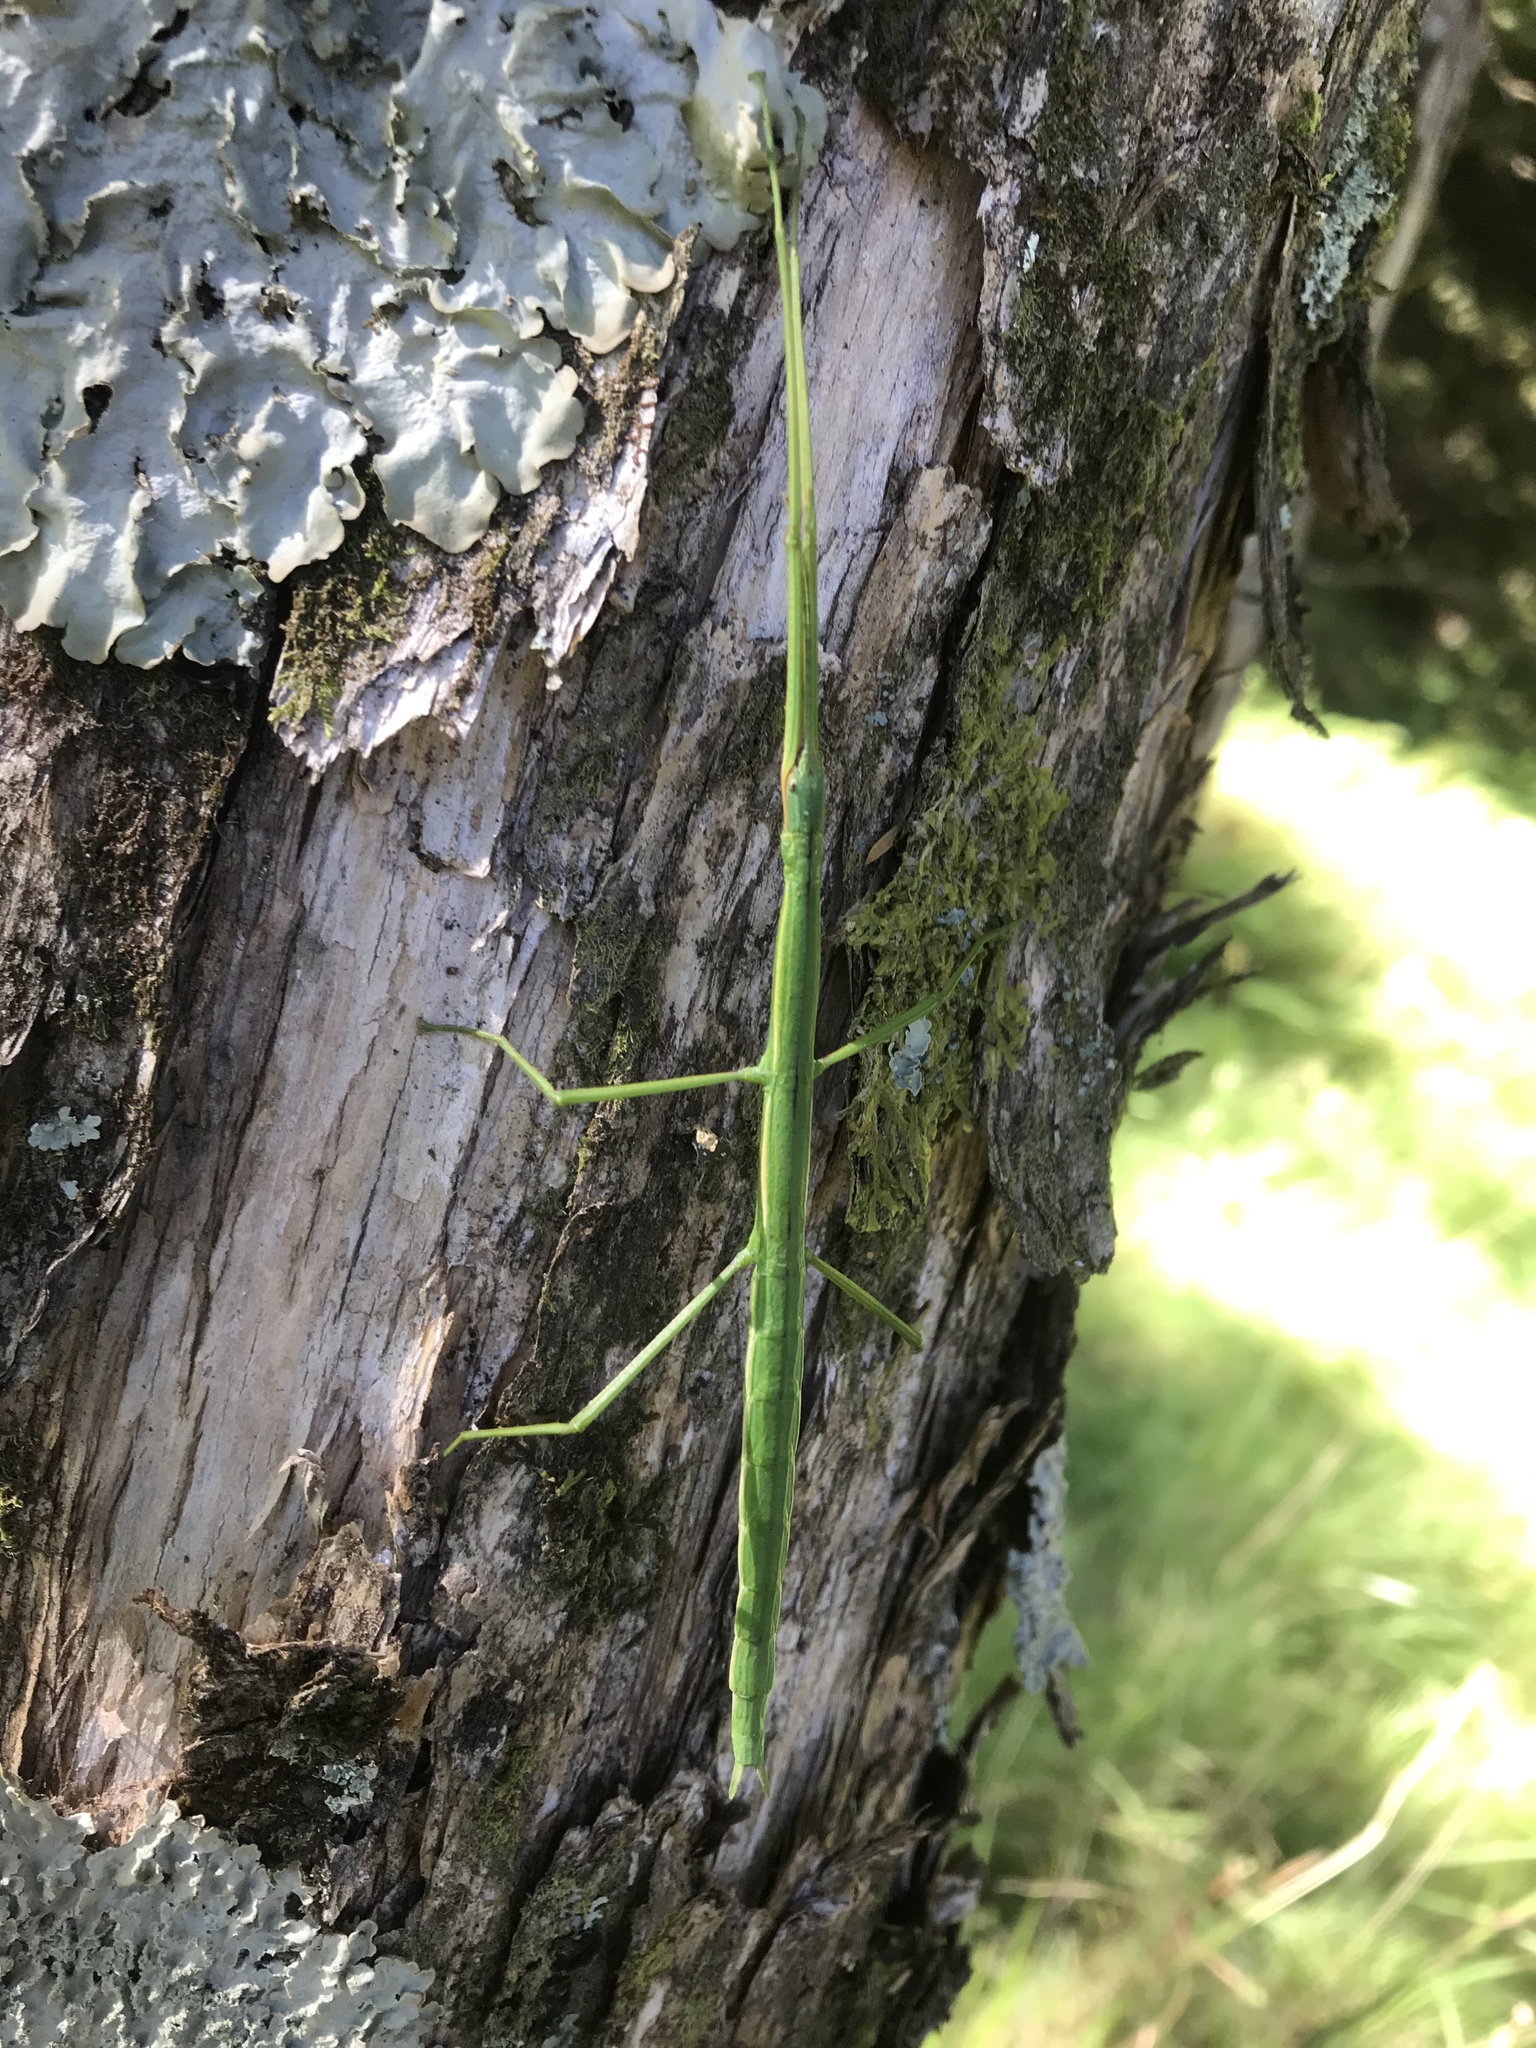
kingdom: Animalia
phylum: Arthropoda
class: Insecta
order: Phasmida
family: Phasmatidae
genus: Clitarchus
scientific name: Clitarchus hookeri
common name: Smooth stick insect
